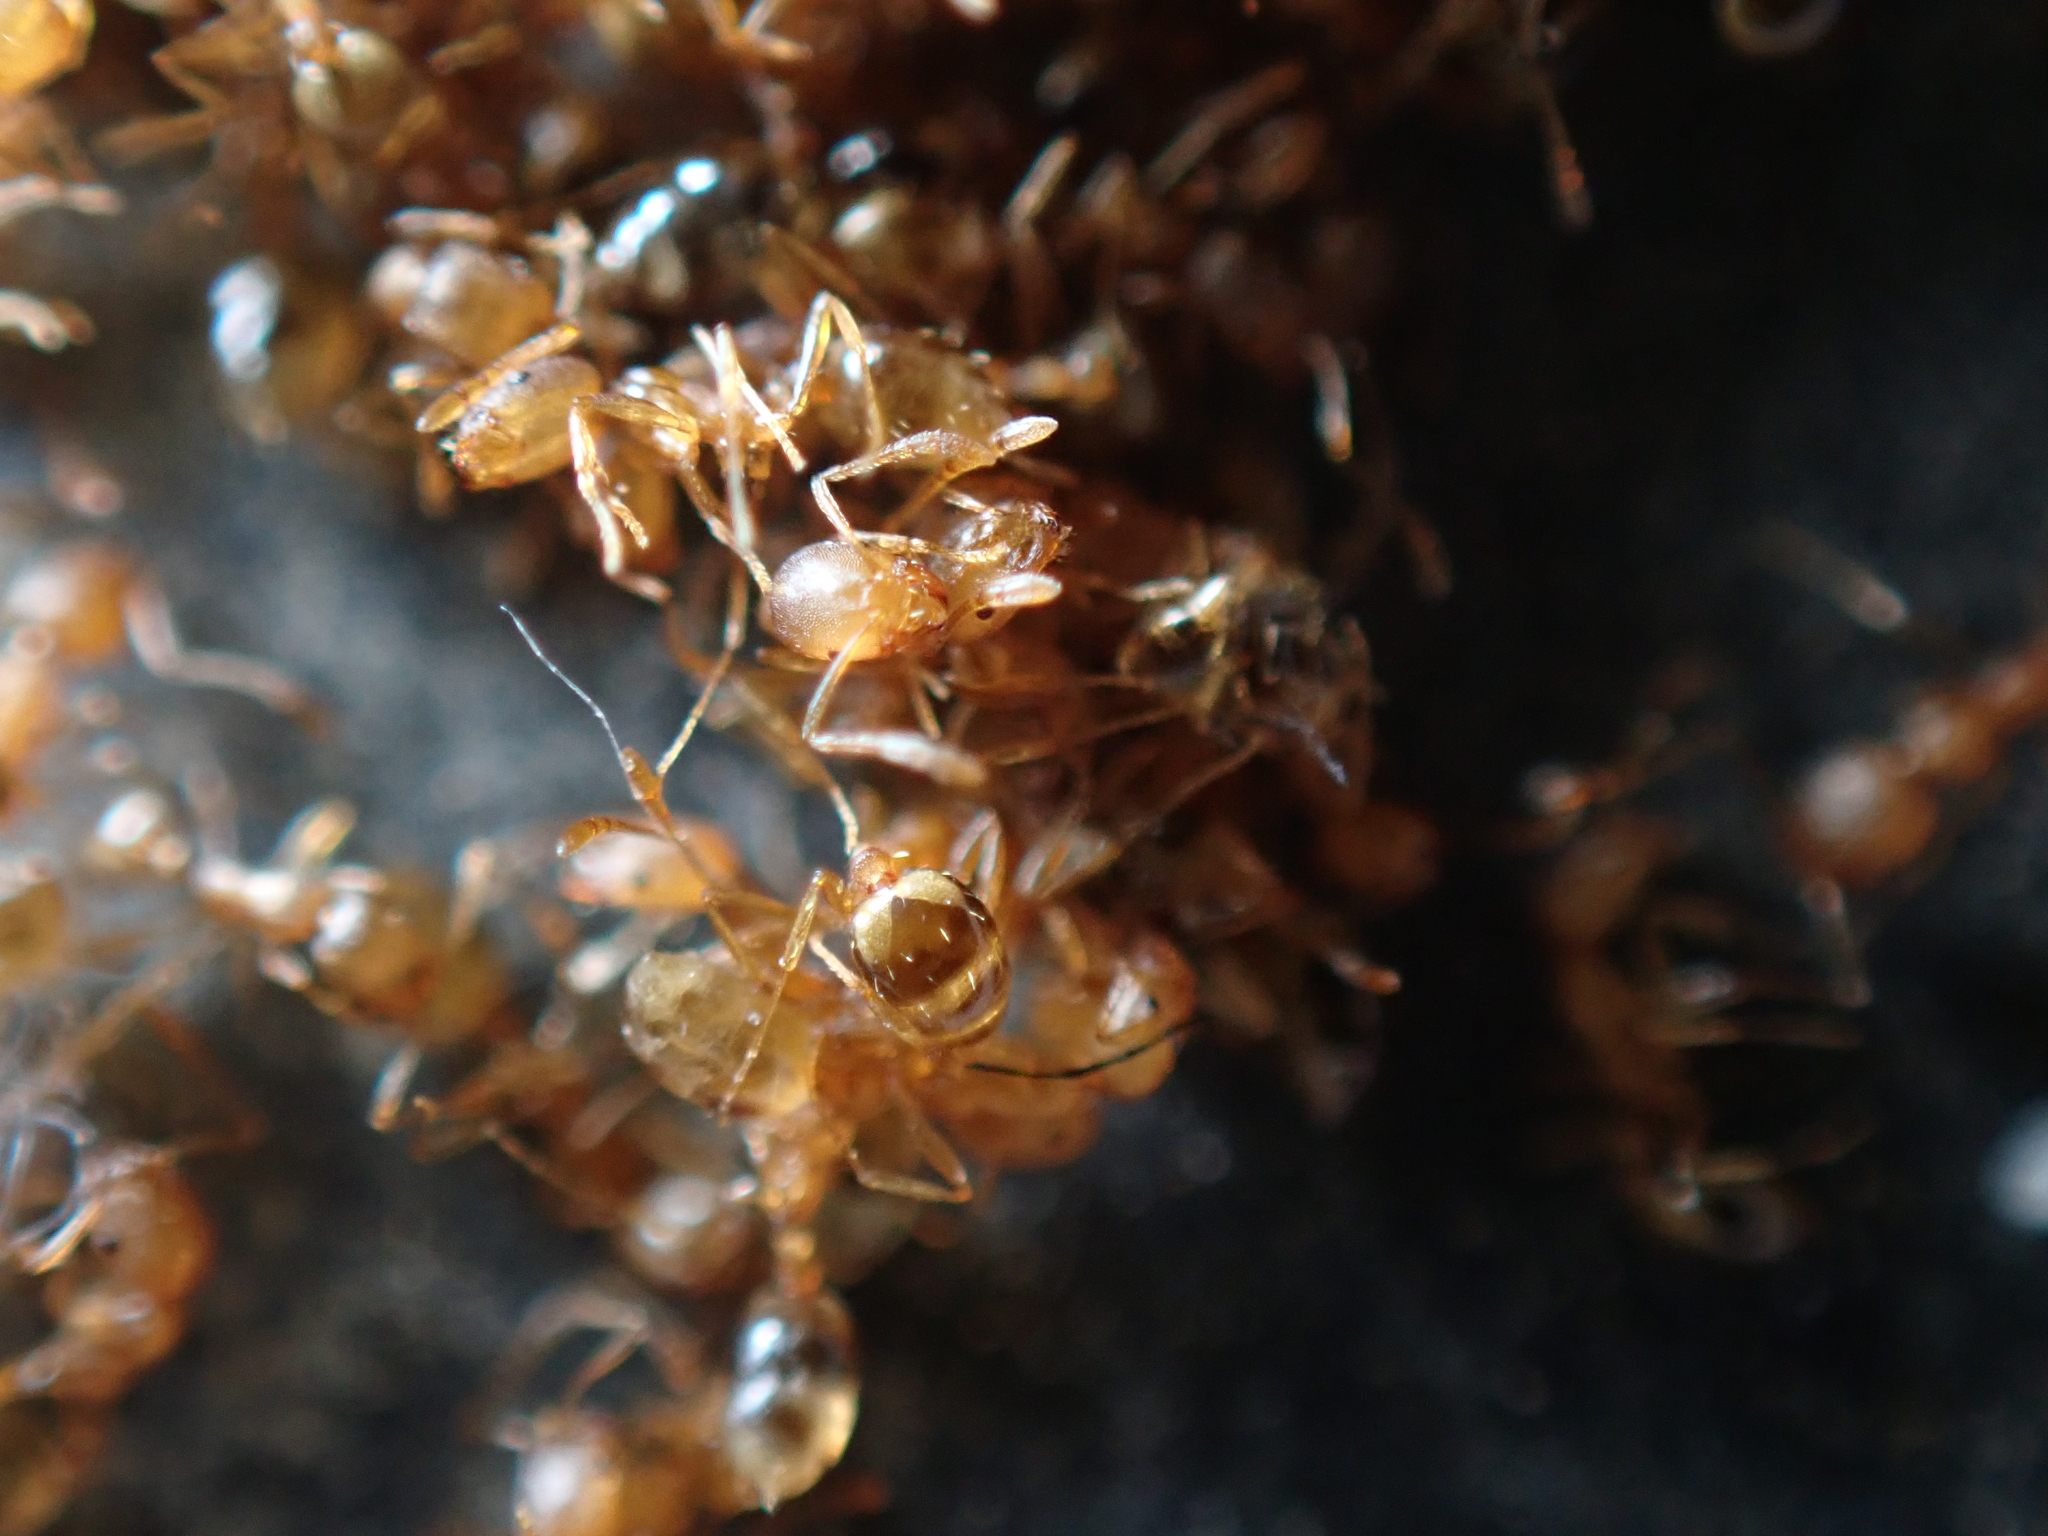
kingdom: Animalia
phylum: Arthropoda
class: Insecta
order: Hymenoptera
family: Formicidae
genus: Monomorium
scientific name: Monomorium pharaonis
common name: Pharaoh ant
